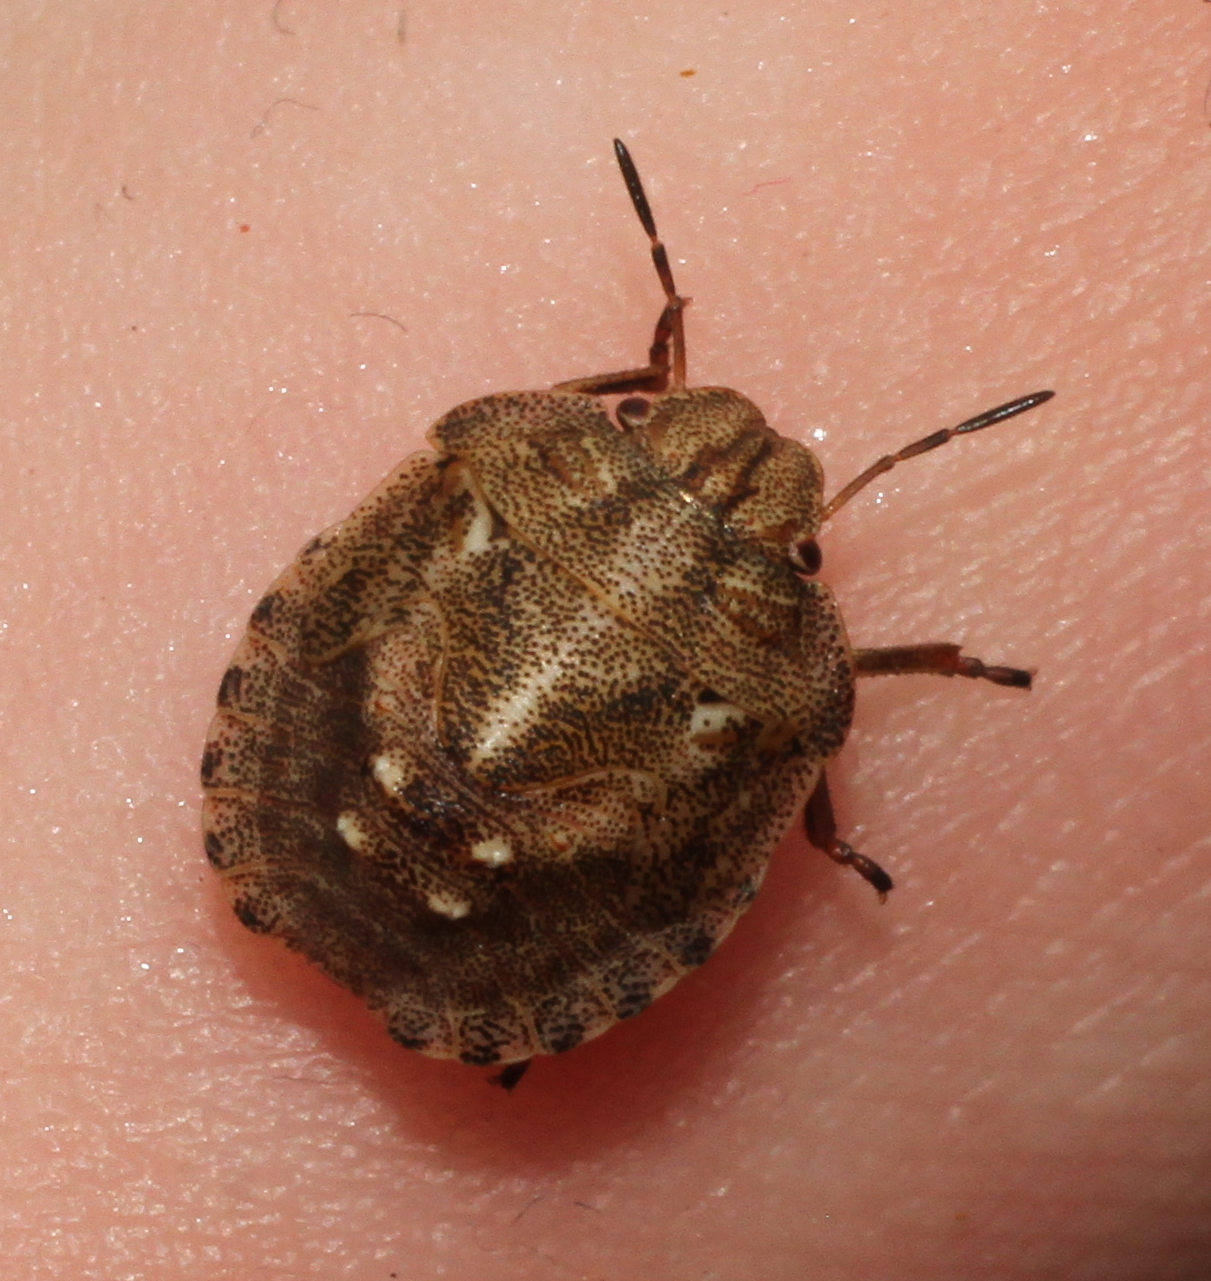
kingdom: Animalia
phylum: Arthropoda
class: Insecta
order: Hemiptera
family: Scutelleridae
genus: Eurygaster
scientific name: Eurygaster testudinaria
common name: Tortoise bug
